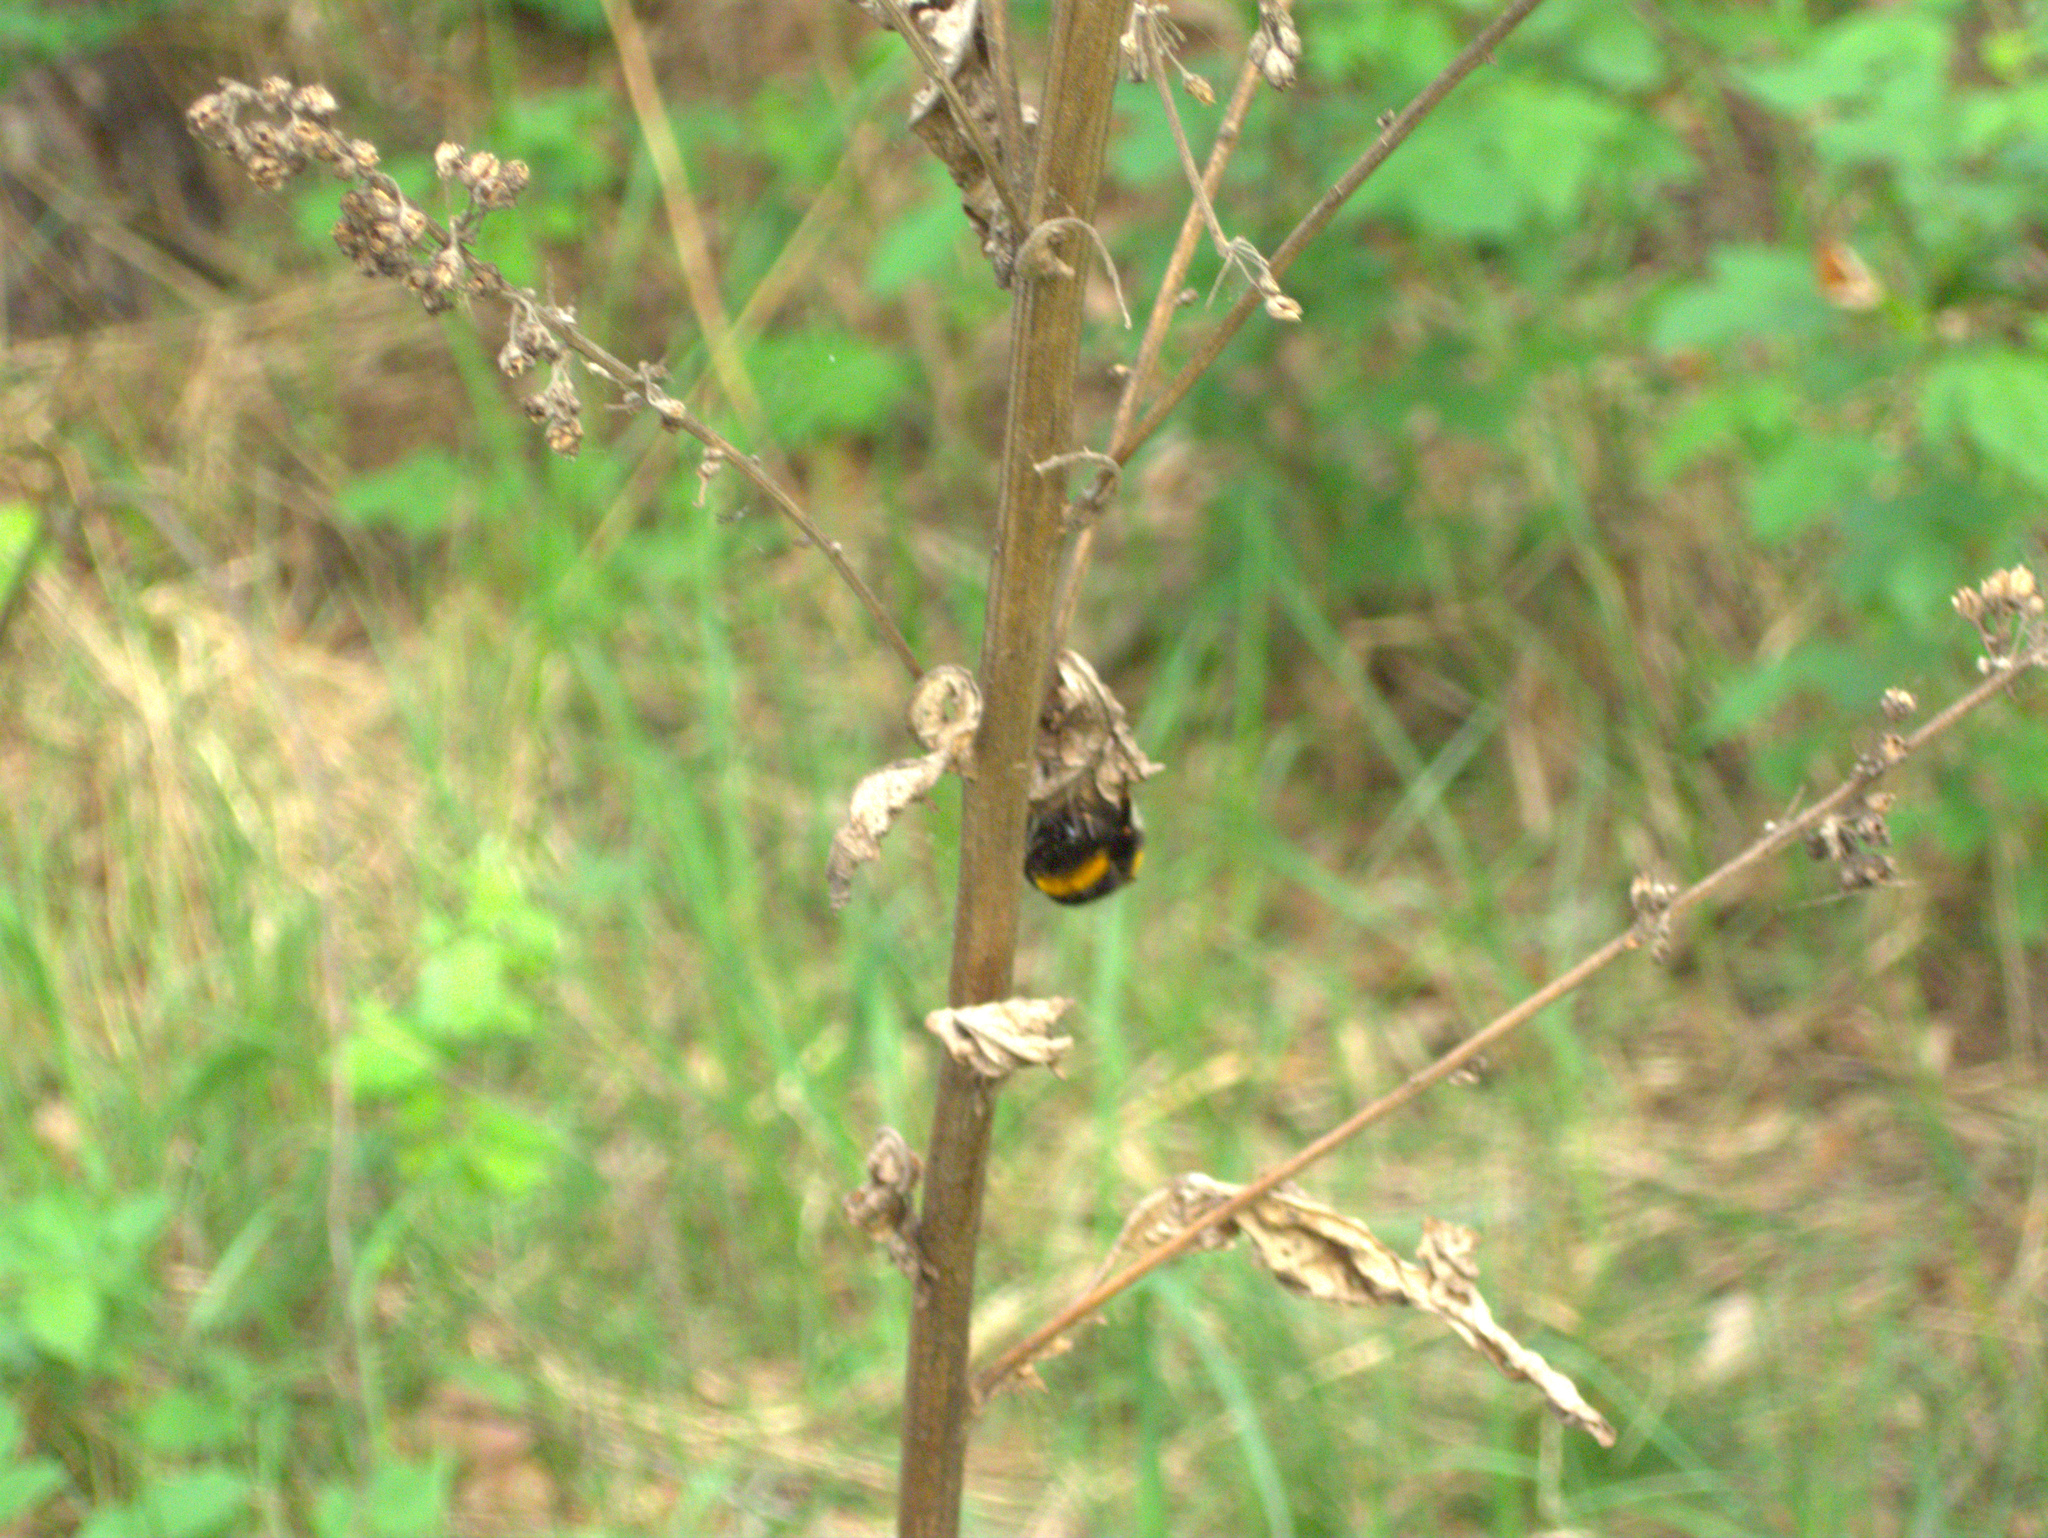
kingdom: Animalia
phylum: Arthropoda
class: Insecta
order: Hymenoptera
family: Apidae
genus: Bombus
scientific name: Bombus
